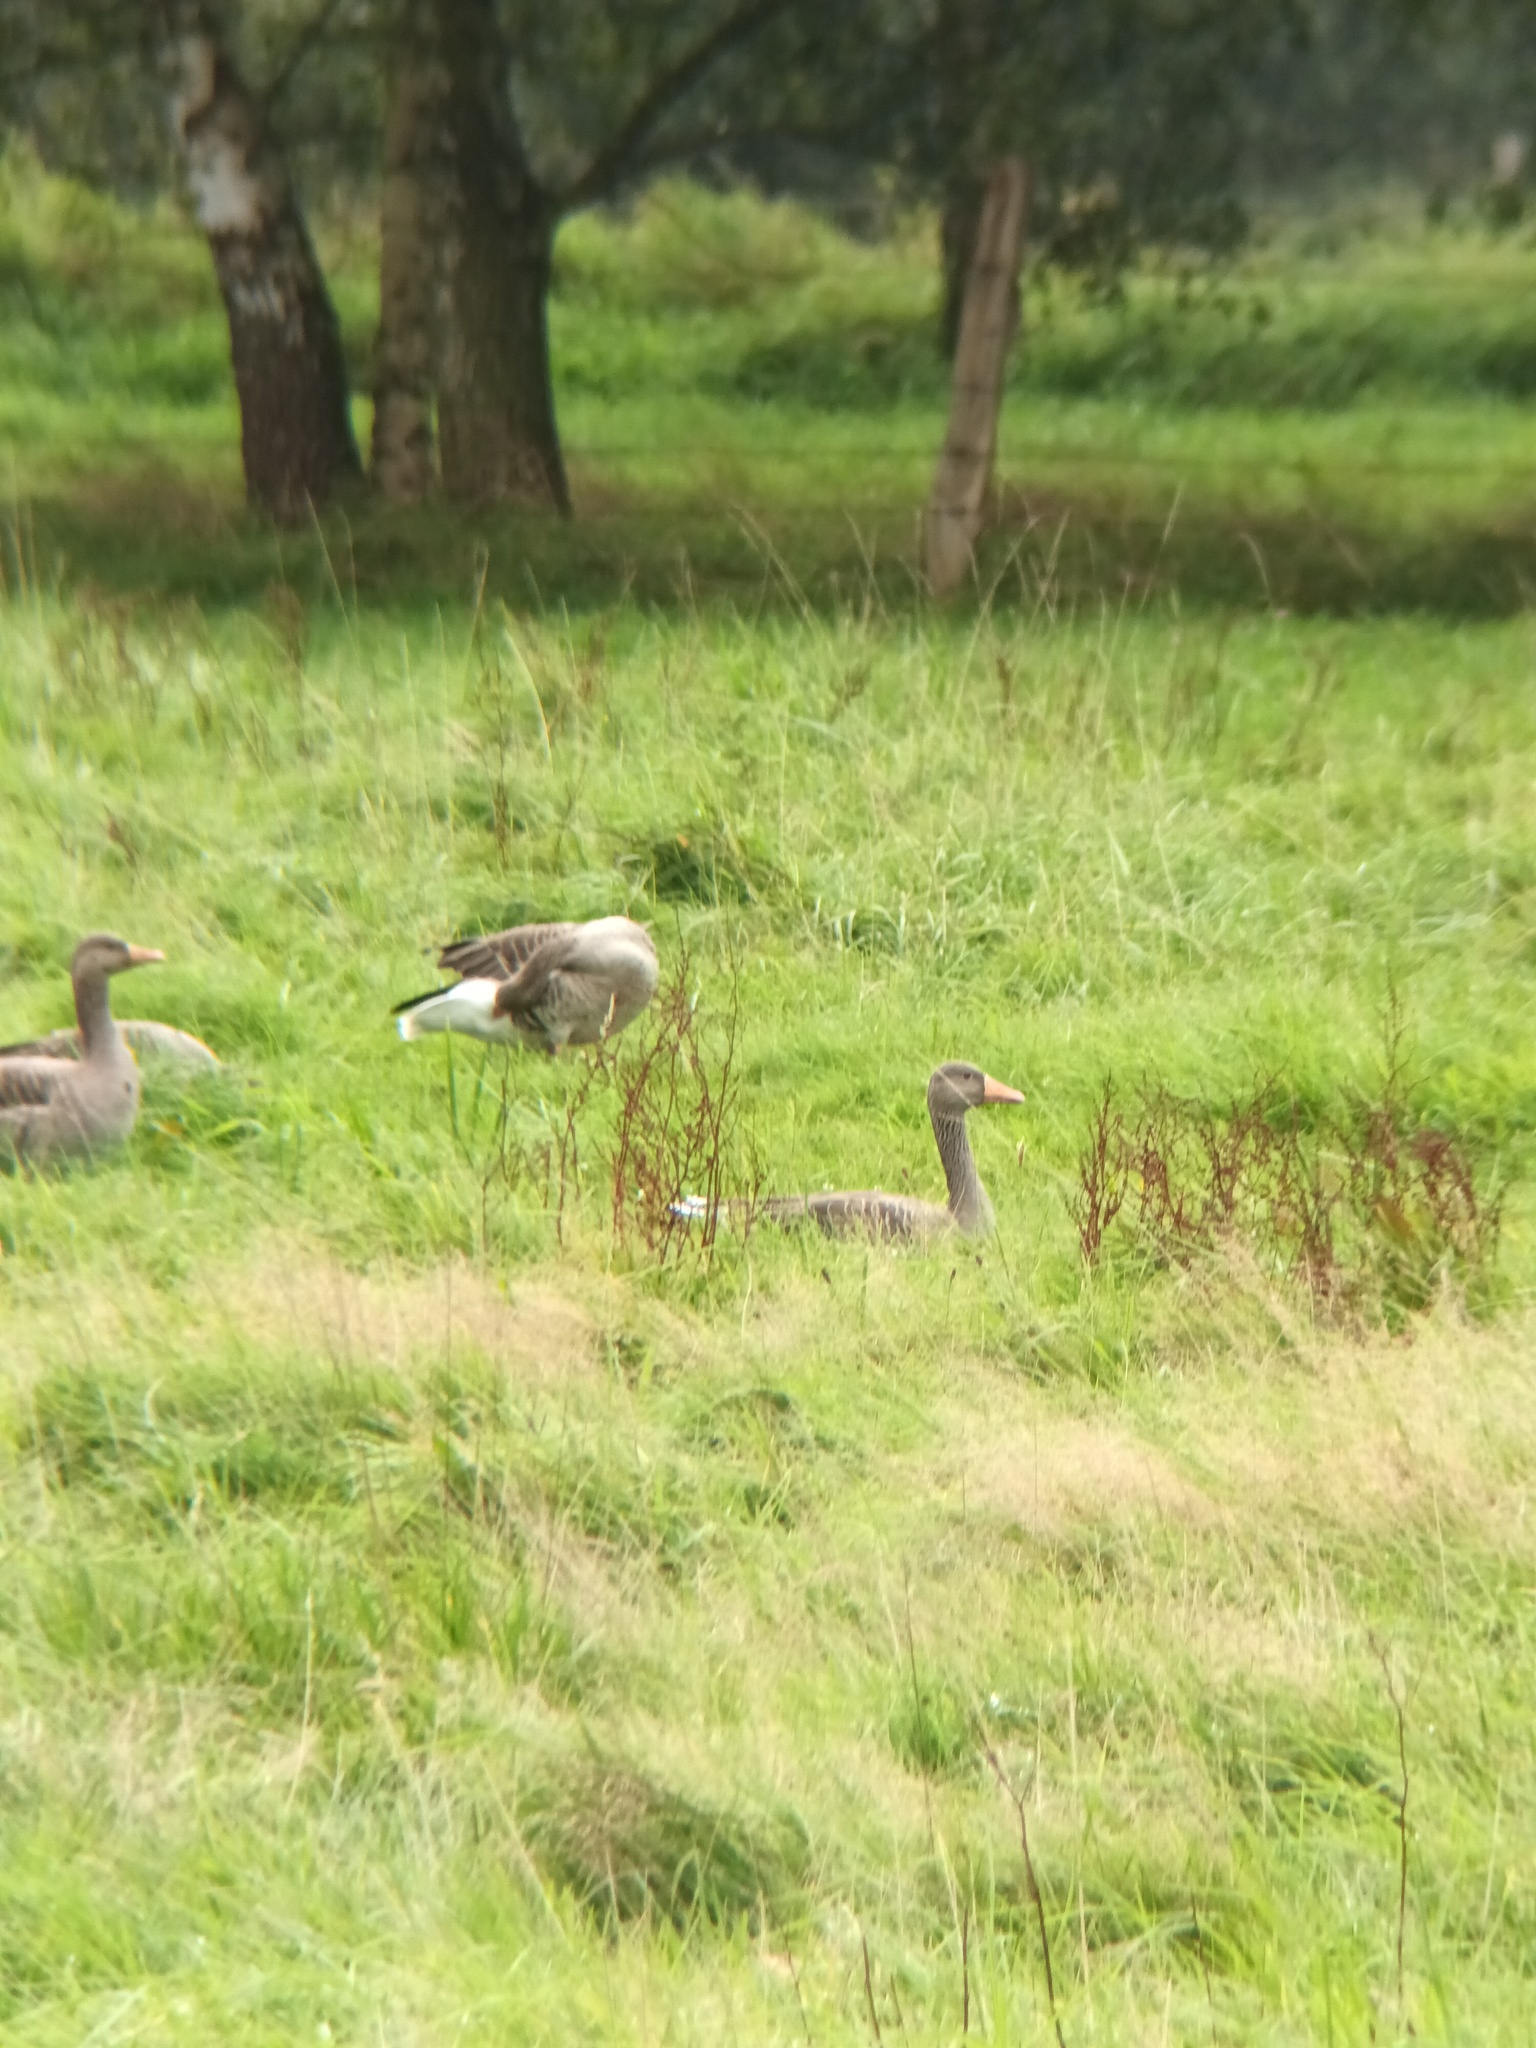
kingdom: Animalia
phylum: Chordata
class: Aves
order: Anseriformes
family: Anatidae
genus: Anser
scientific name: Anser anser
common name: Greylag goose
